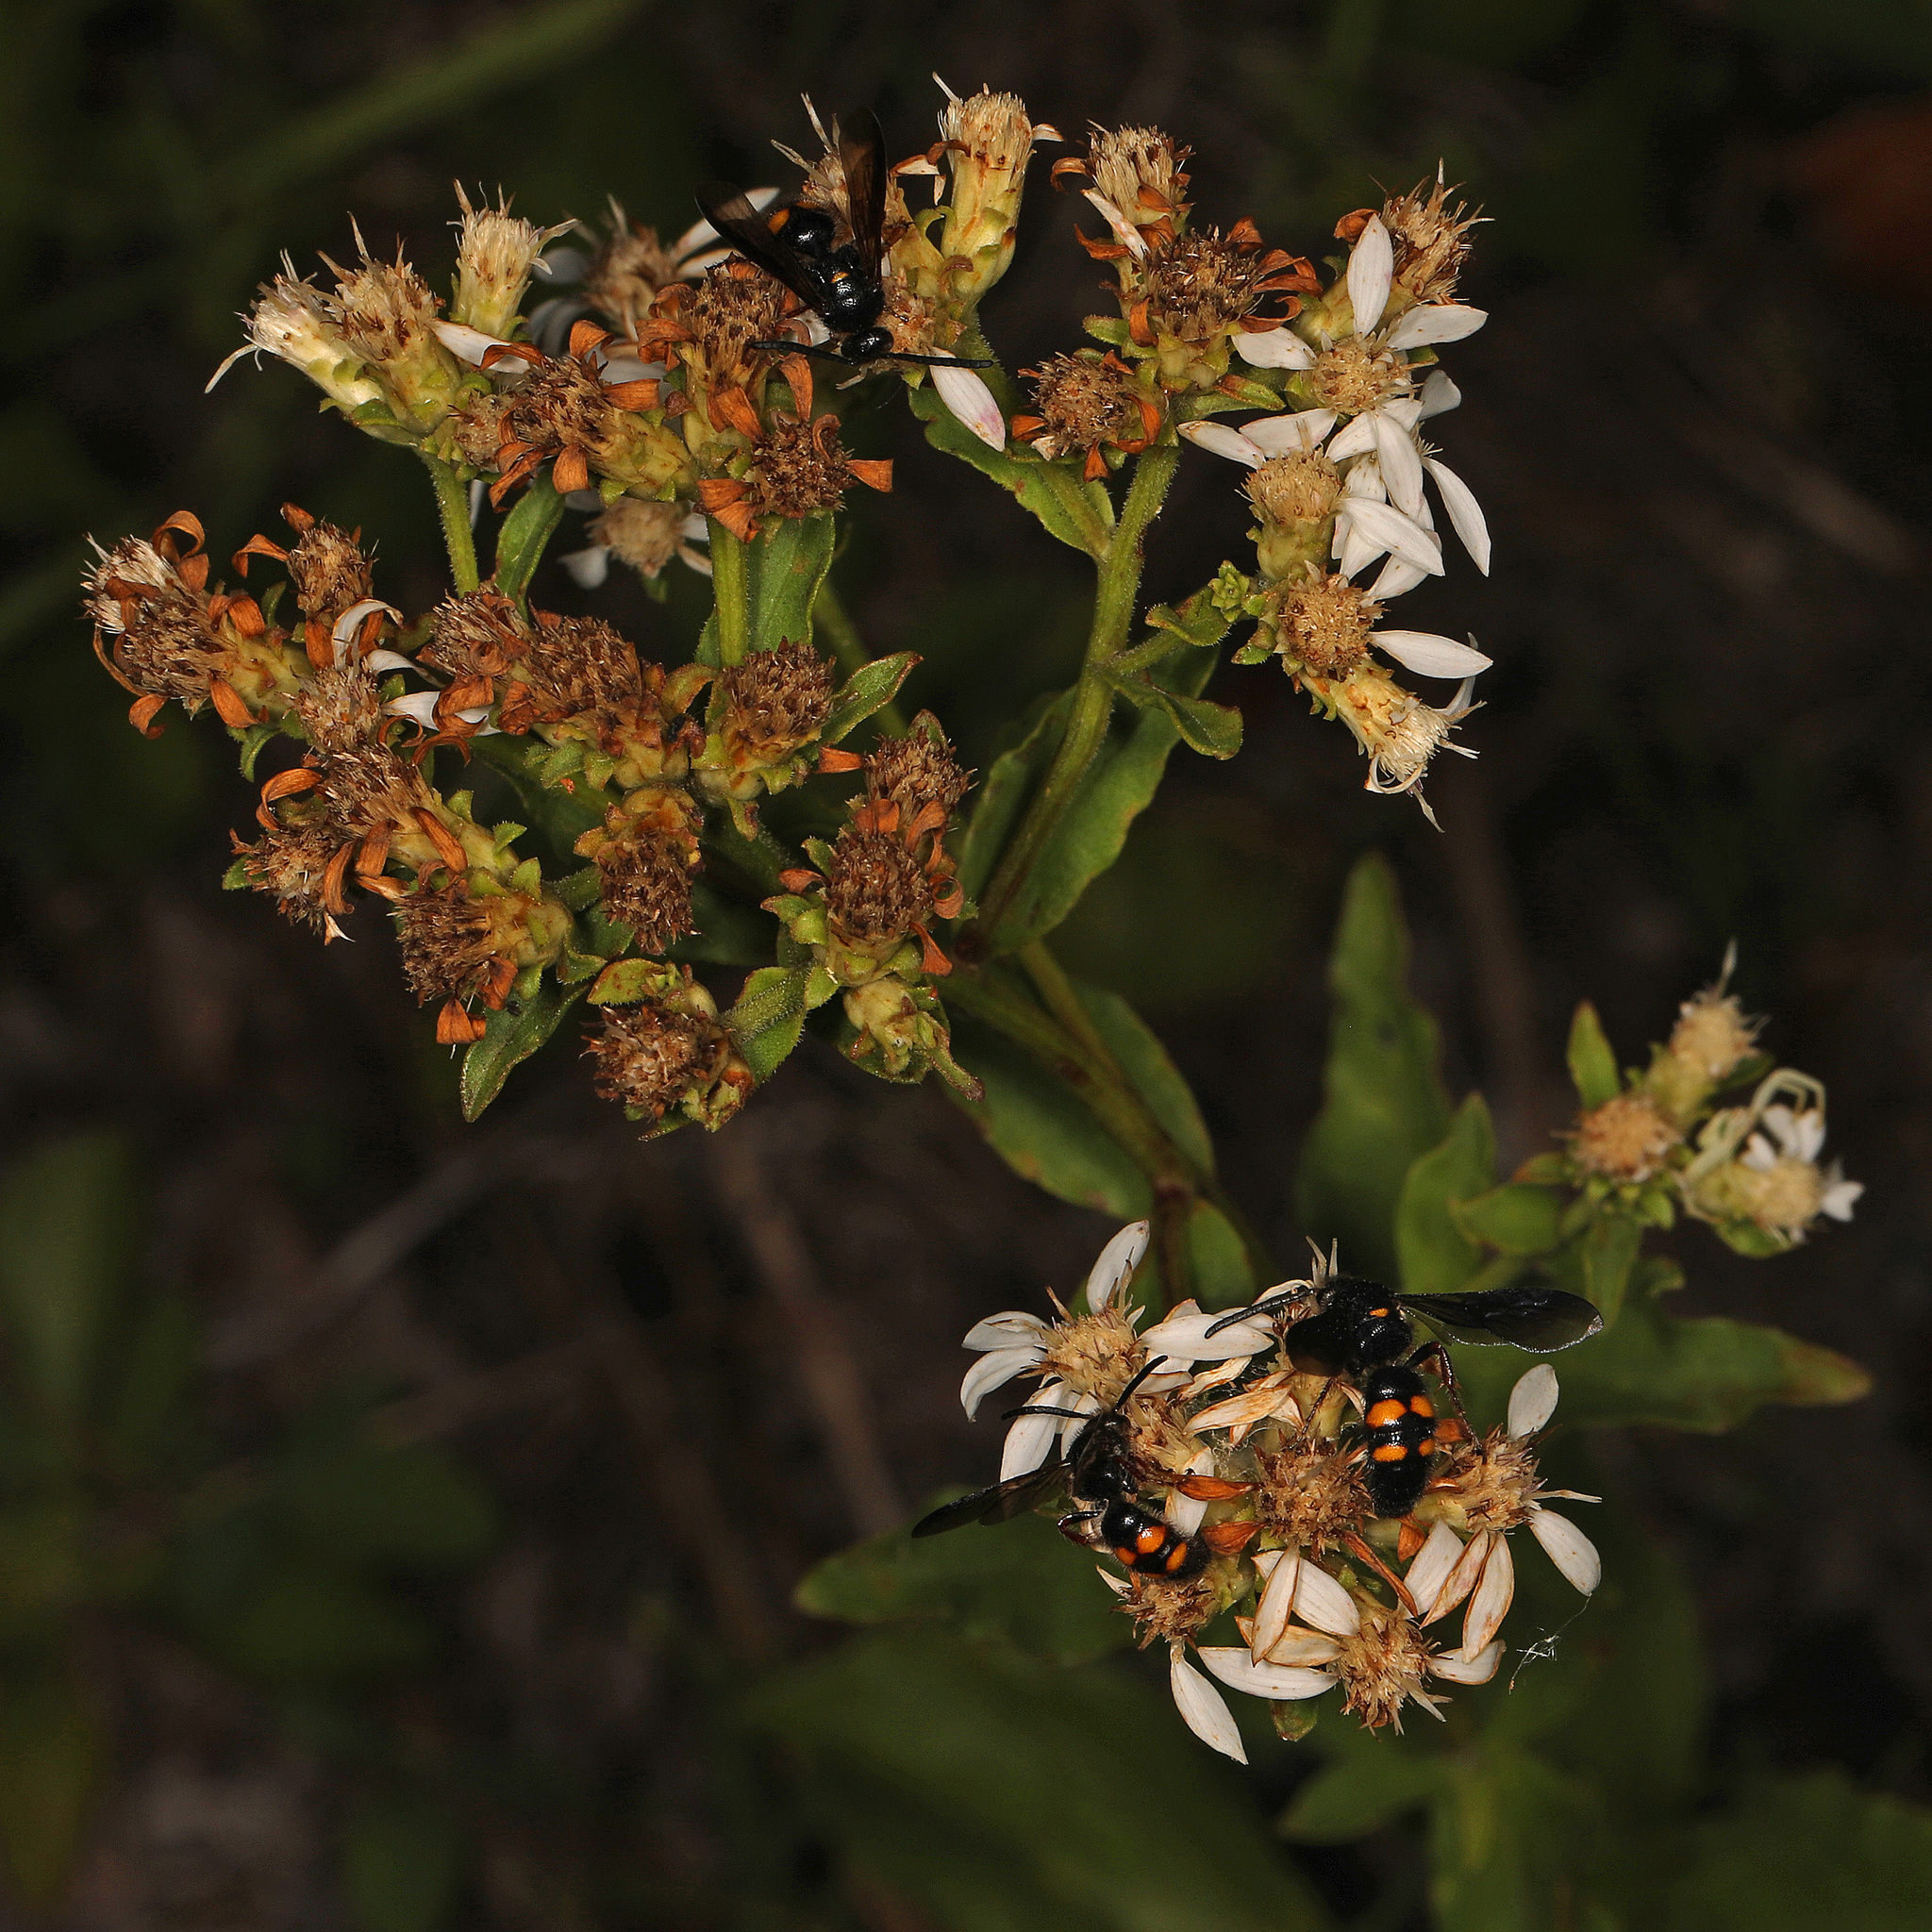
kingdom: Animalia
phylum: Arthropoda
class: Insecta
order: Hymenoptera
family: Scoliidae
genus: Scolia
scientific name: Scolia nobilitata
